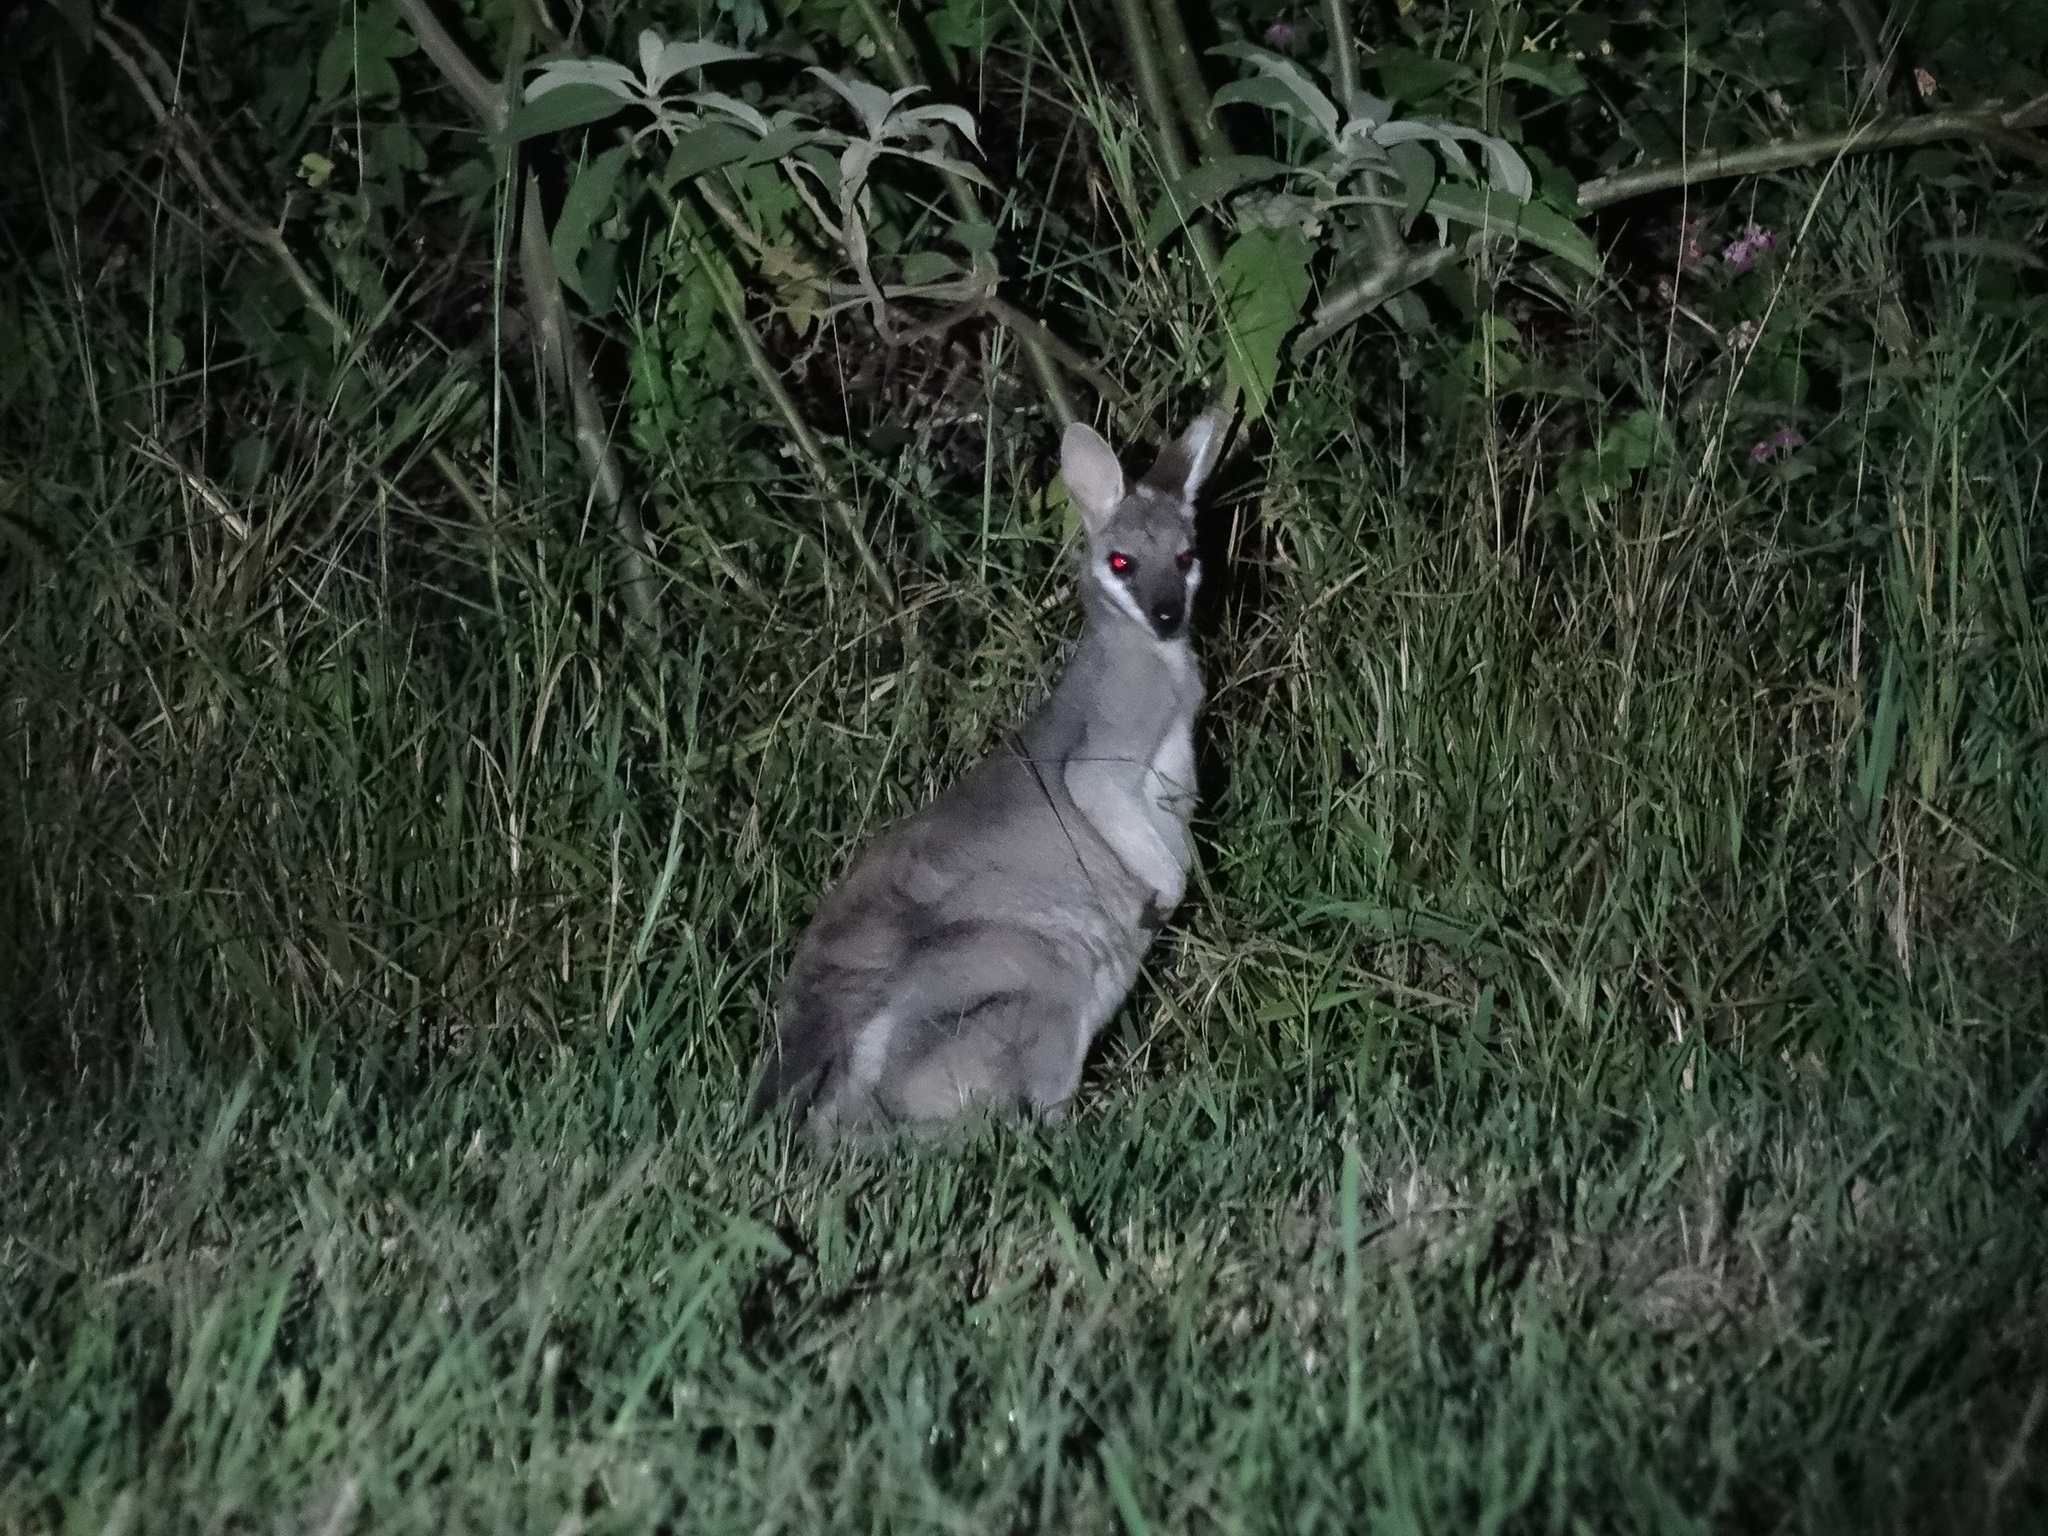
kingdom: Animalia
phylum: Chordata
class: Mammalia
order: Diprotodontia
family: Macropodidae
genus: Notamacropus
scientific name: Notamacropus parryi
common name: Whip-tailed wallaby
